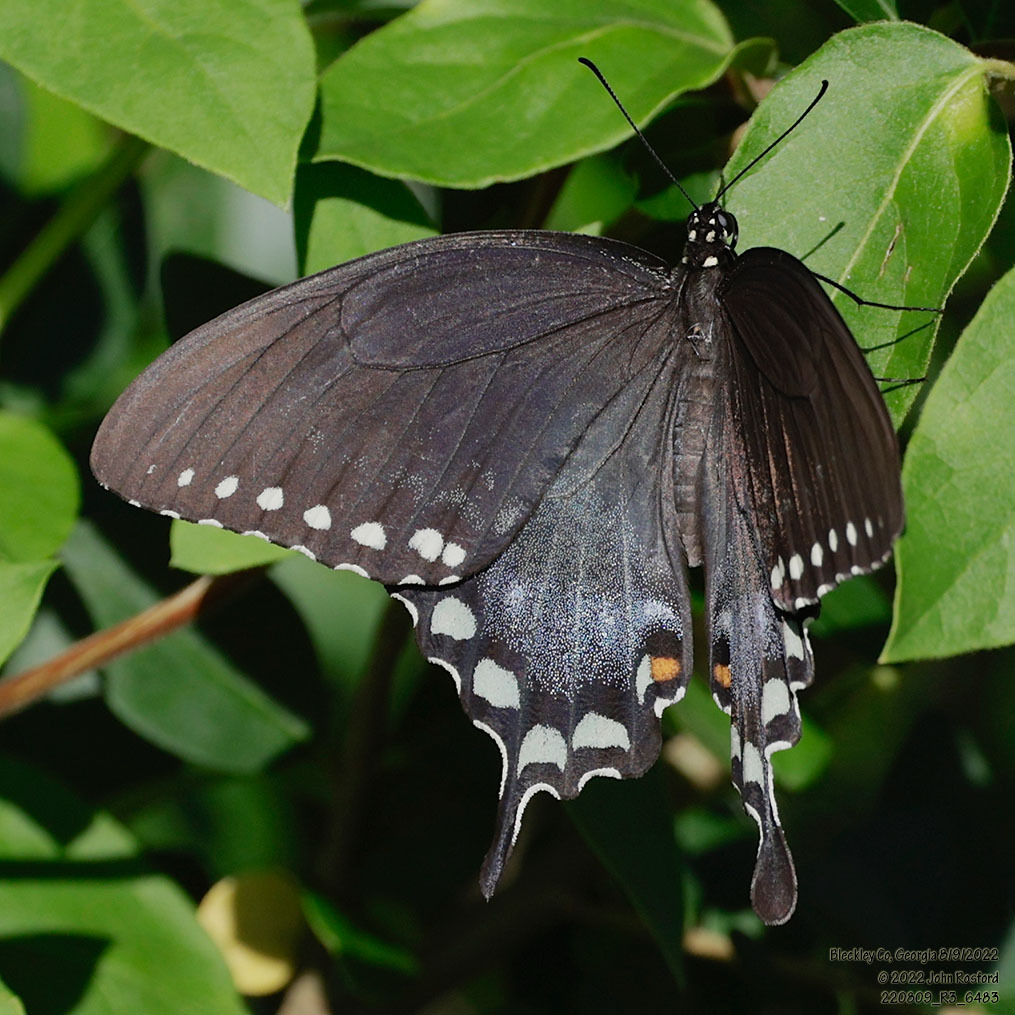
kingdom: Animalia
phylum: Arthropoda
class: Insecta
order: Lepidoptera
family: Papilionidae
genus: Papilio
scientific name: Papilio troilus
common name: Spicebush swallowtail
